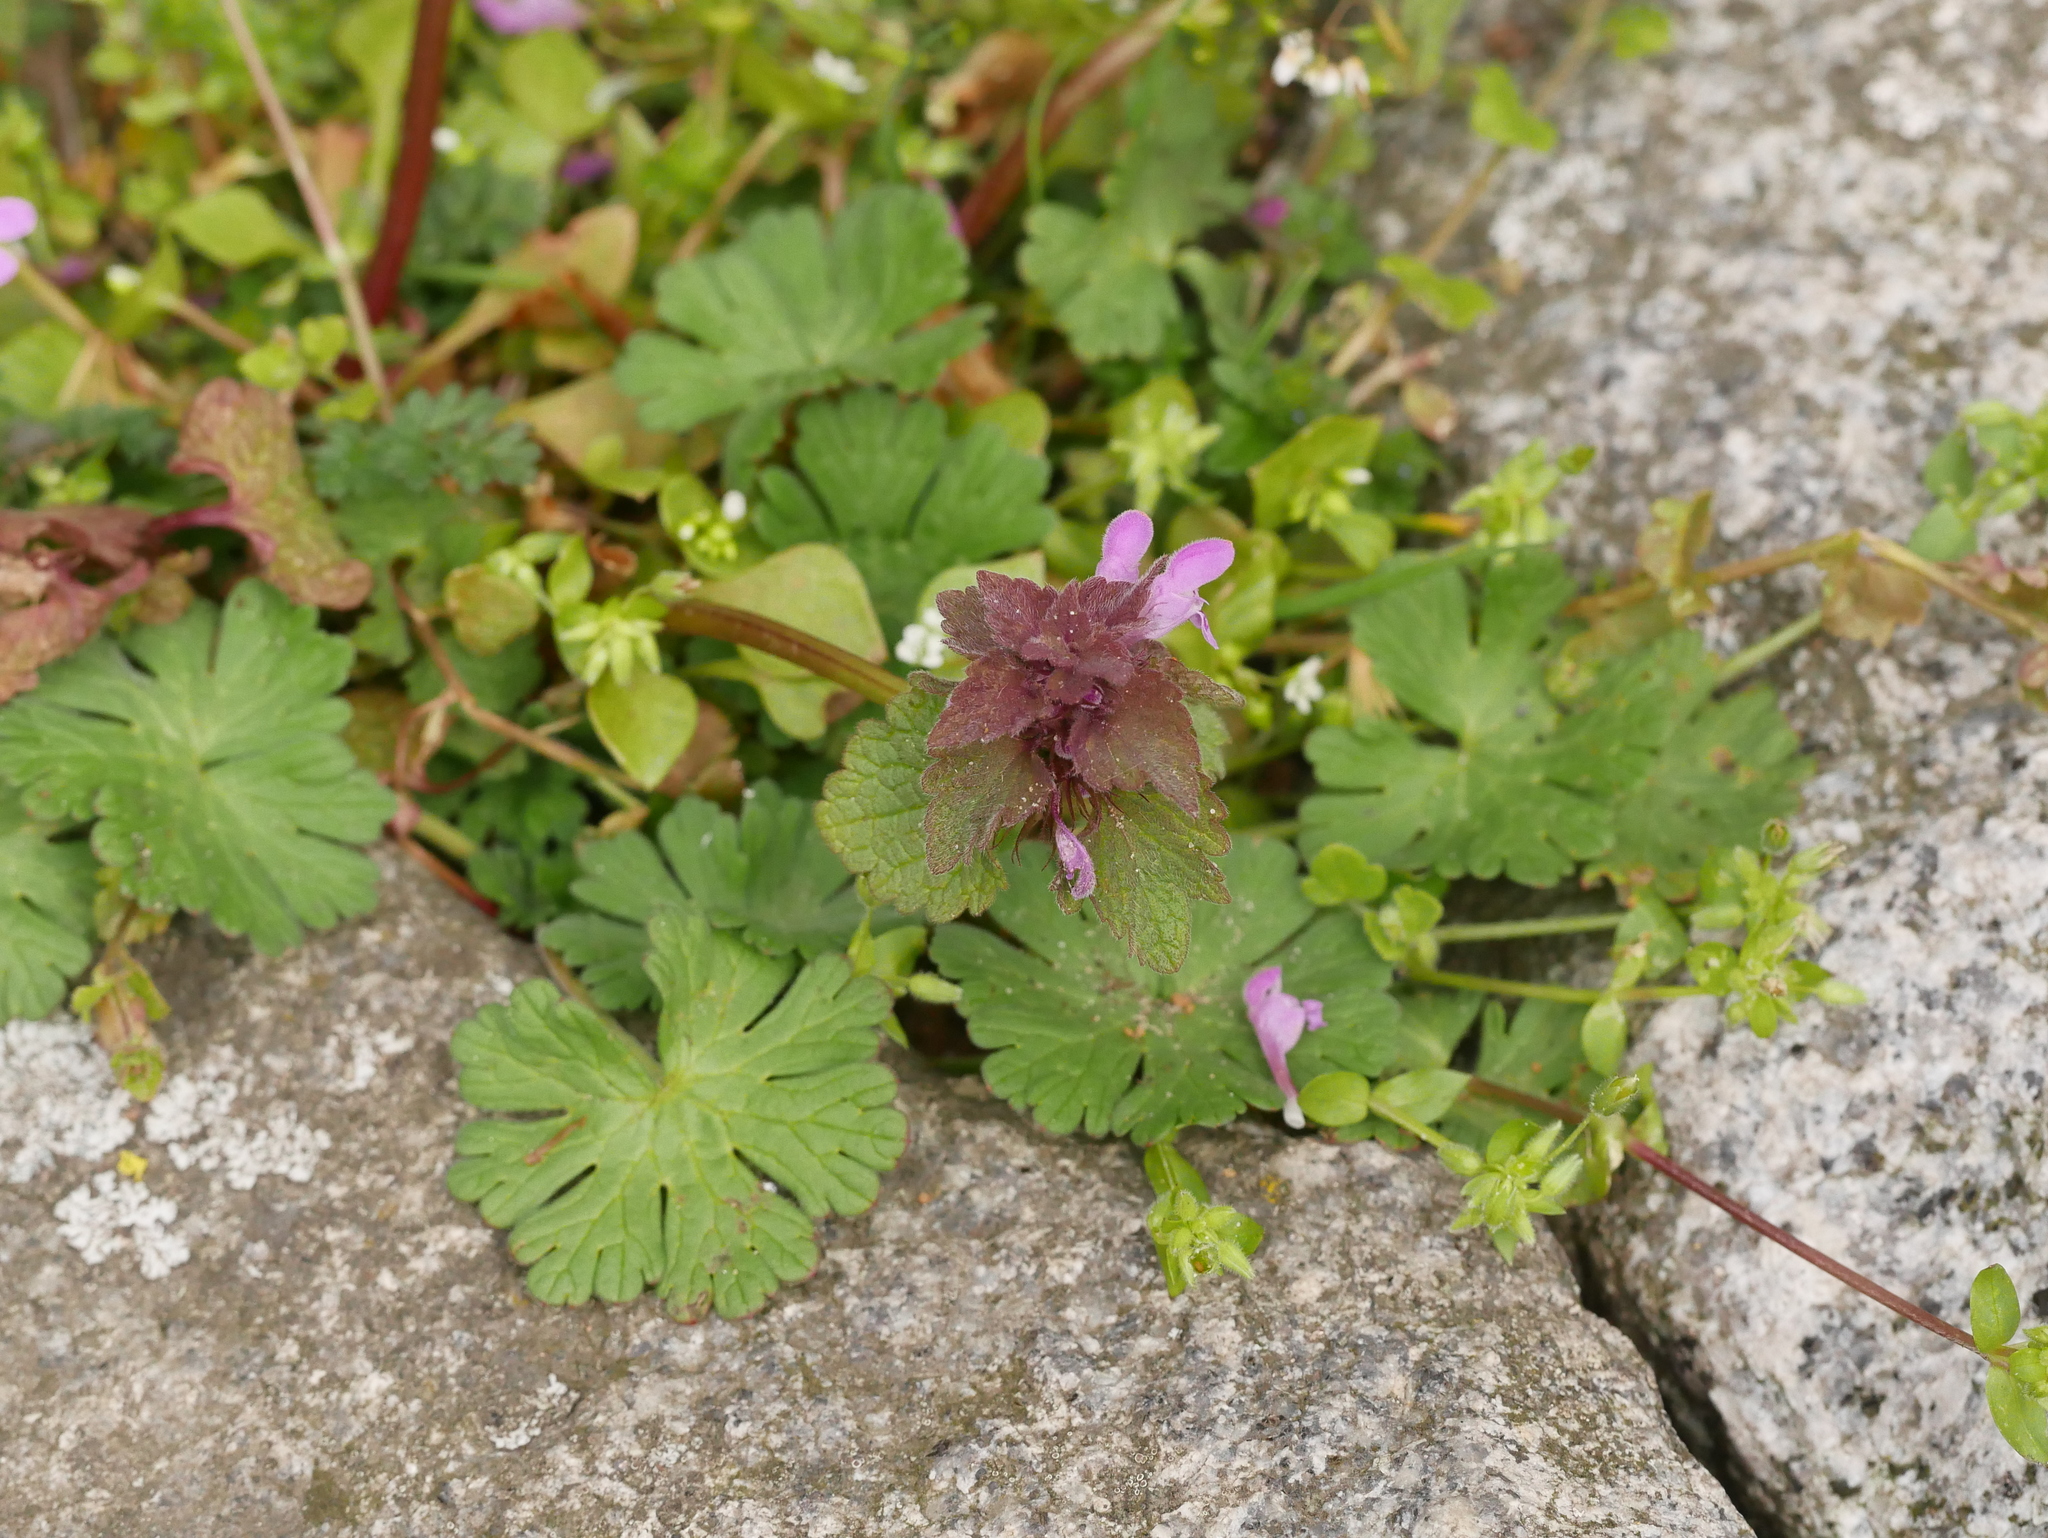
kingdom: Plantae
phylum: Tracheophyta
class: Magnoliopsida
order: Lamiales
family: Lamiaceae
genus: Lamium
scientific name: Lamium purpureum
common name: Red dead-nettle
